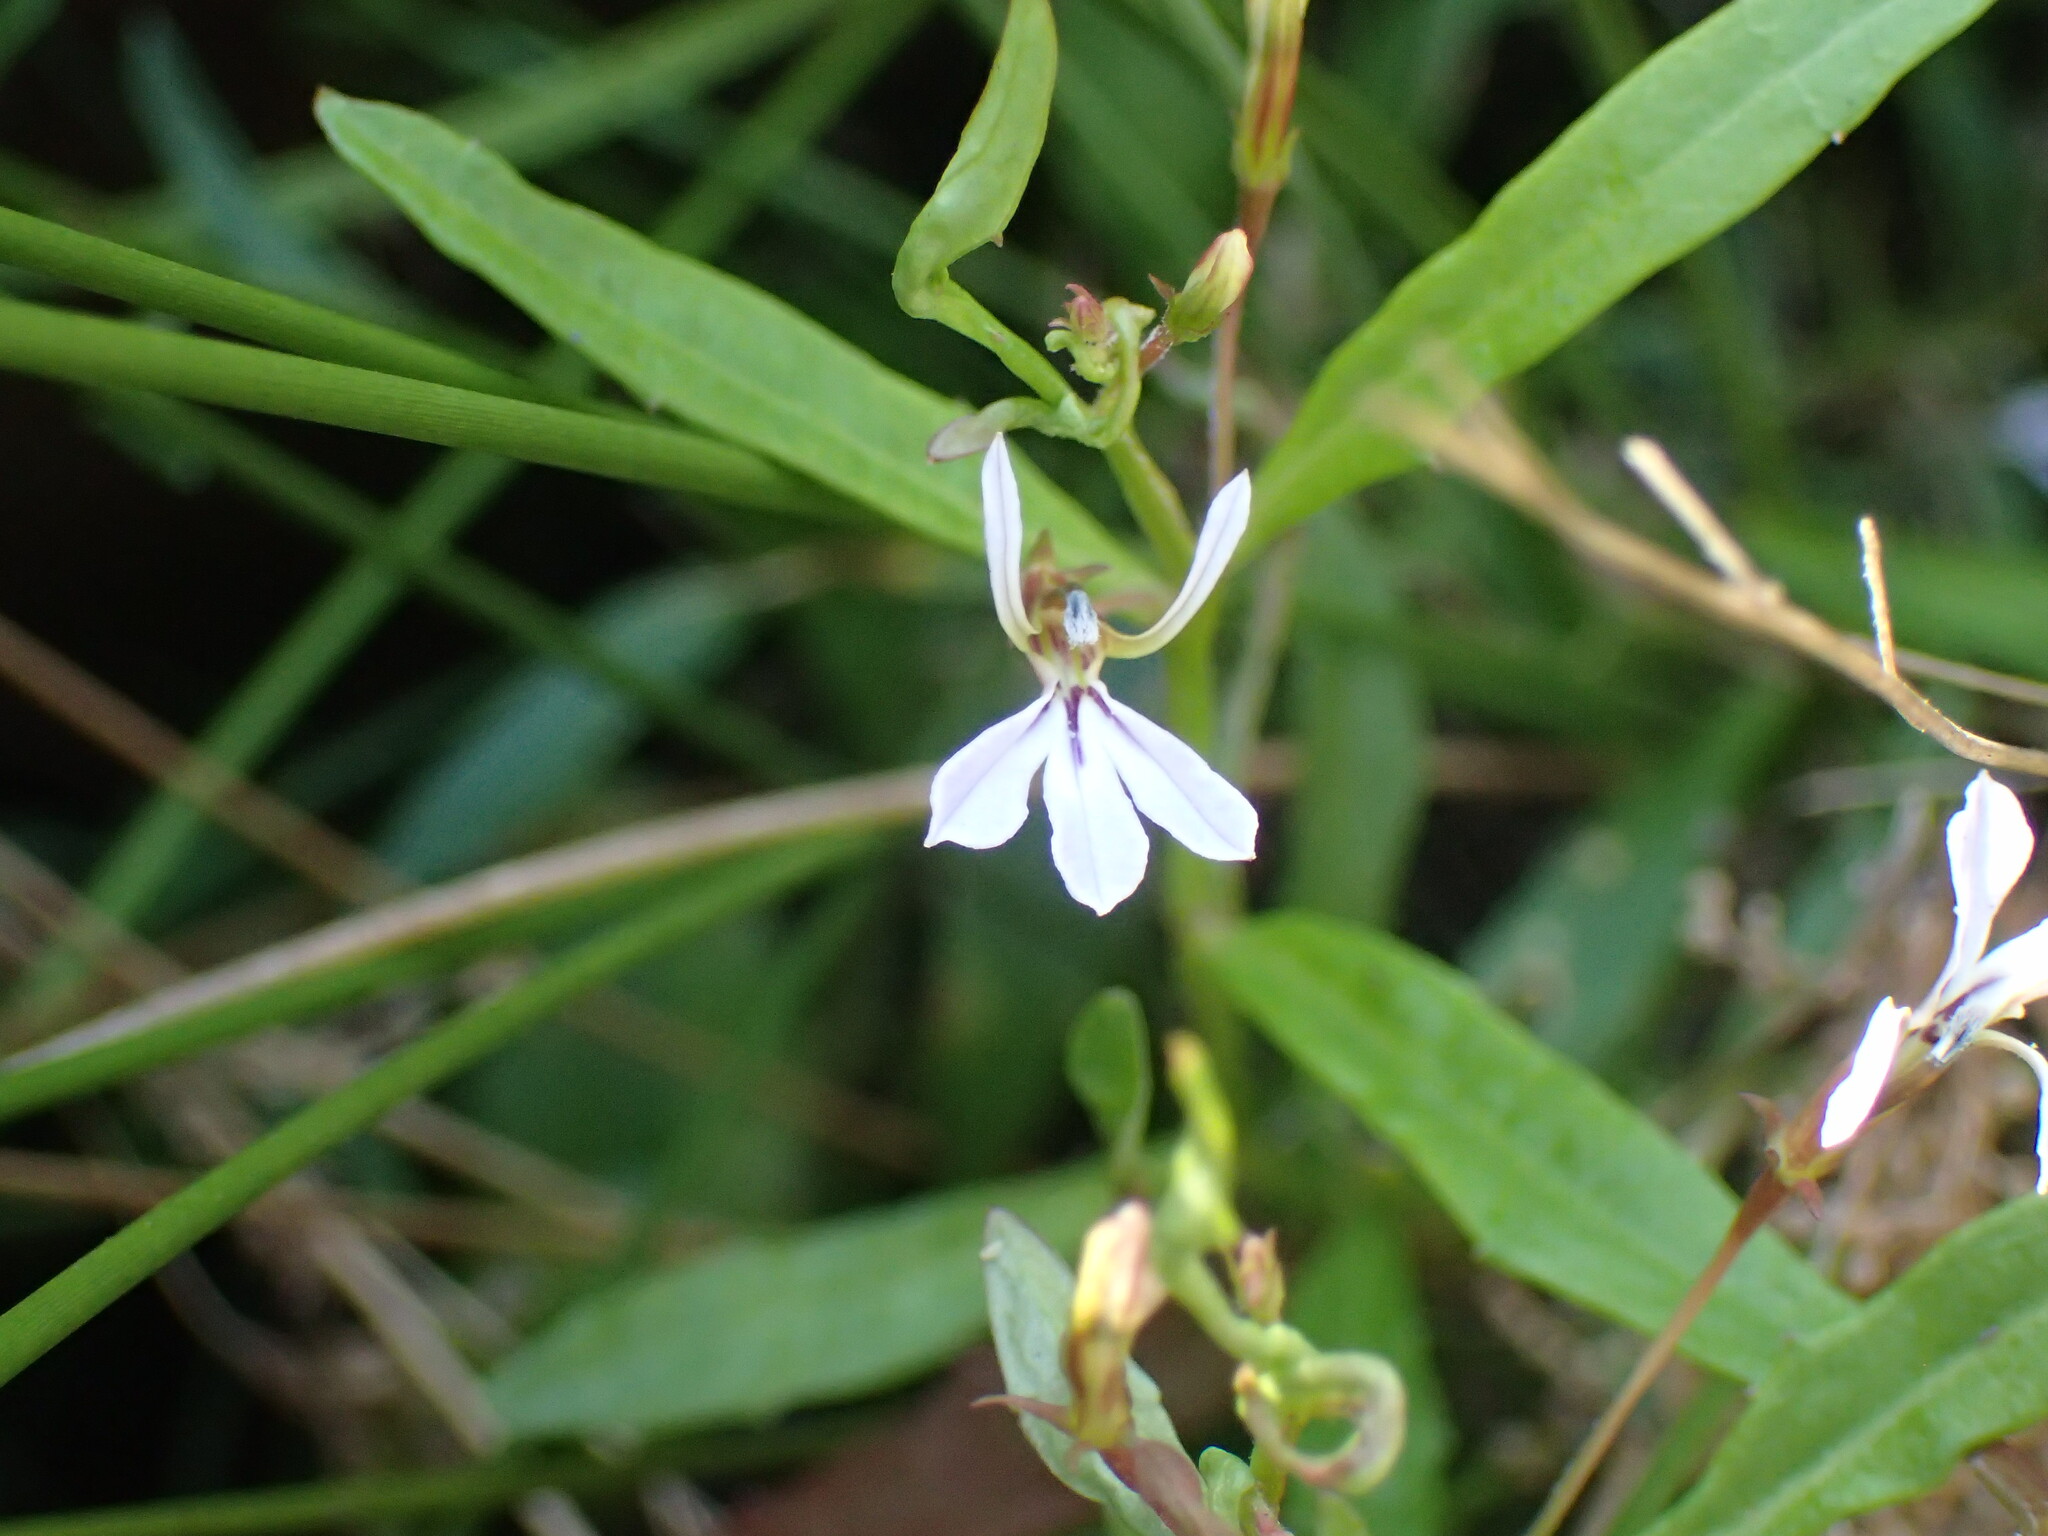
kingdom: Plantae
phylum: Tracheophyta
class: Magnoliopsida
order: Asterales
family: Campanulaceae
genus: Lobelia
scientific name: Lobelia anceps
